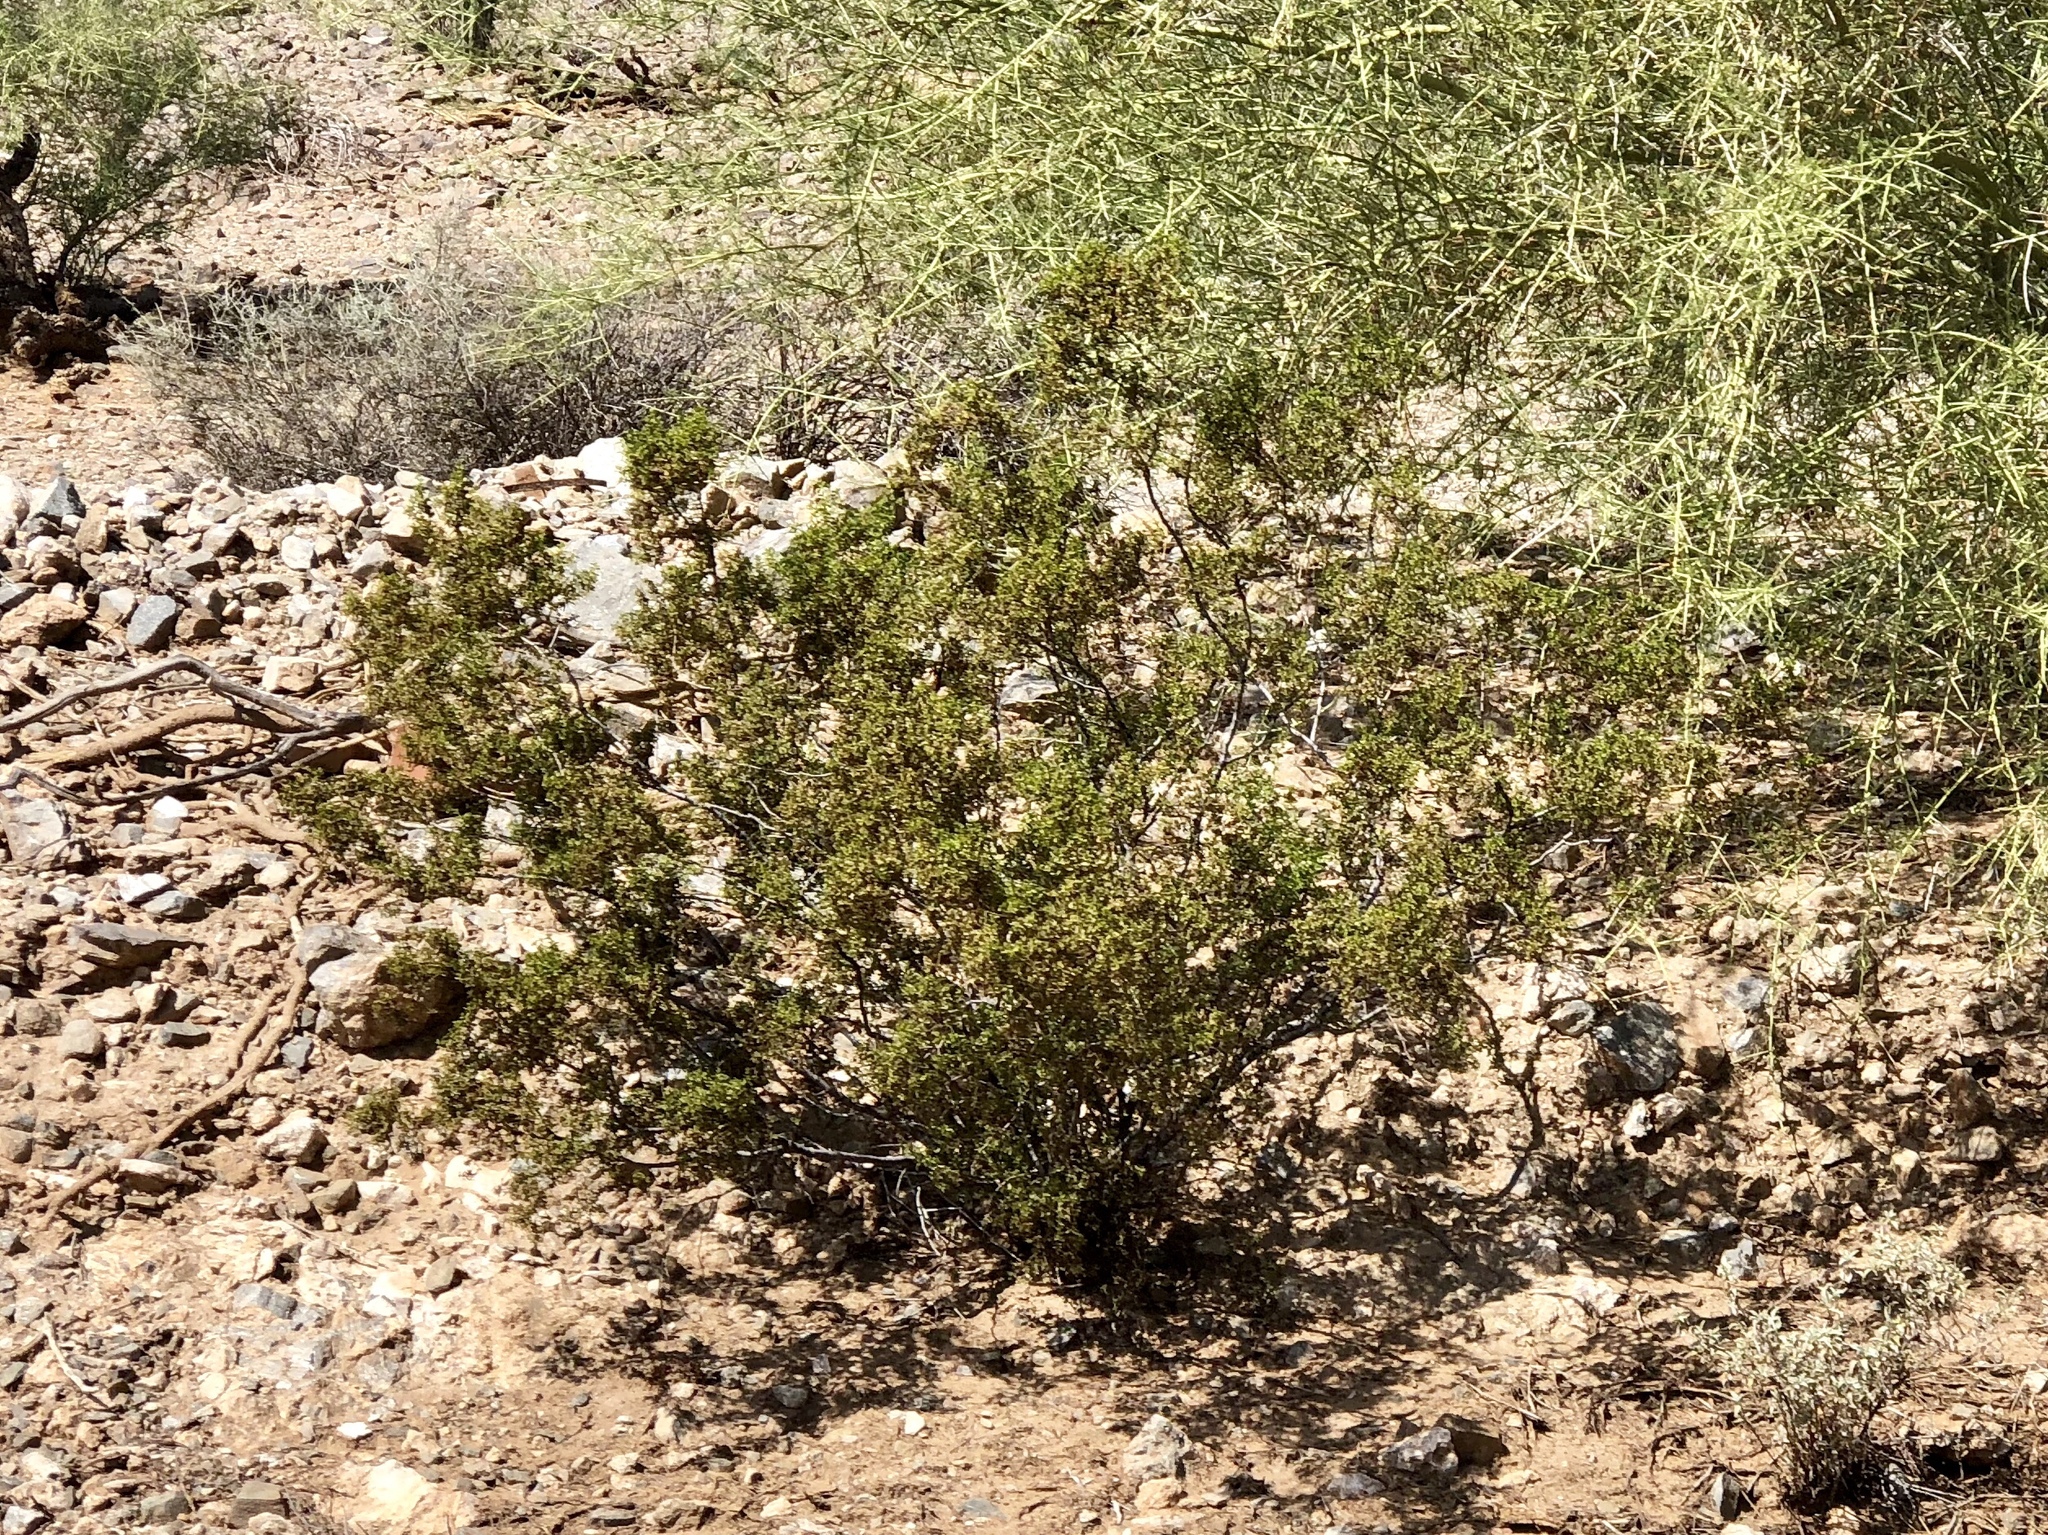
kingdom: Plantae
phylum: Tracheophyta
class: Magnoliopsida
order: Zygophyllales
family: Zygophyllaceae
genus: Larrea
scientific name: Larrea tridentata
